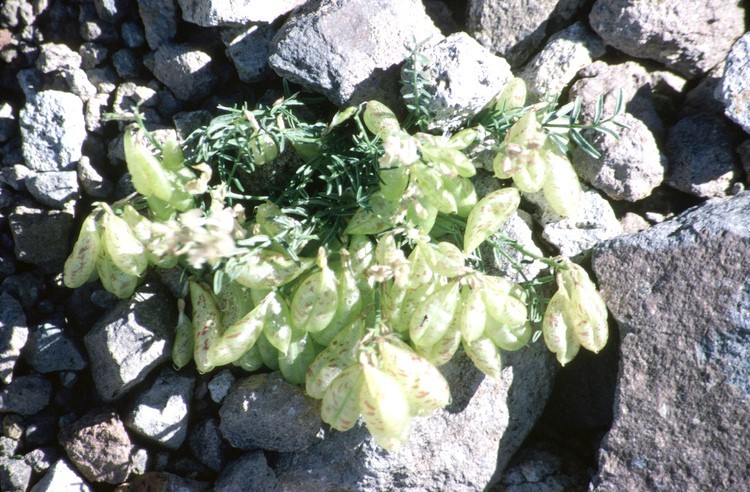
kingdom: Plantae
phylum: Tracheophyta
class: Magnoliopsida
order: Fabales
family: Fabaceae
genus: Astragalus
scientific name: Astragalus whitneyi
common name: Balloonpod milkvetch
